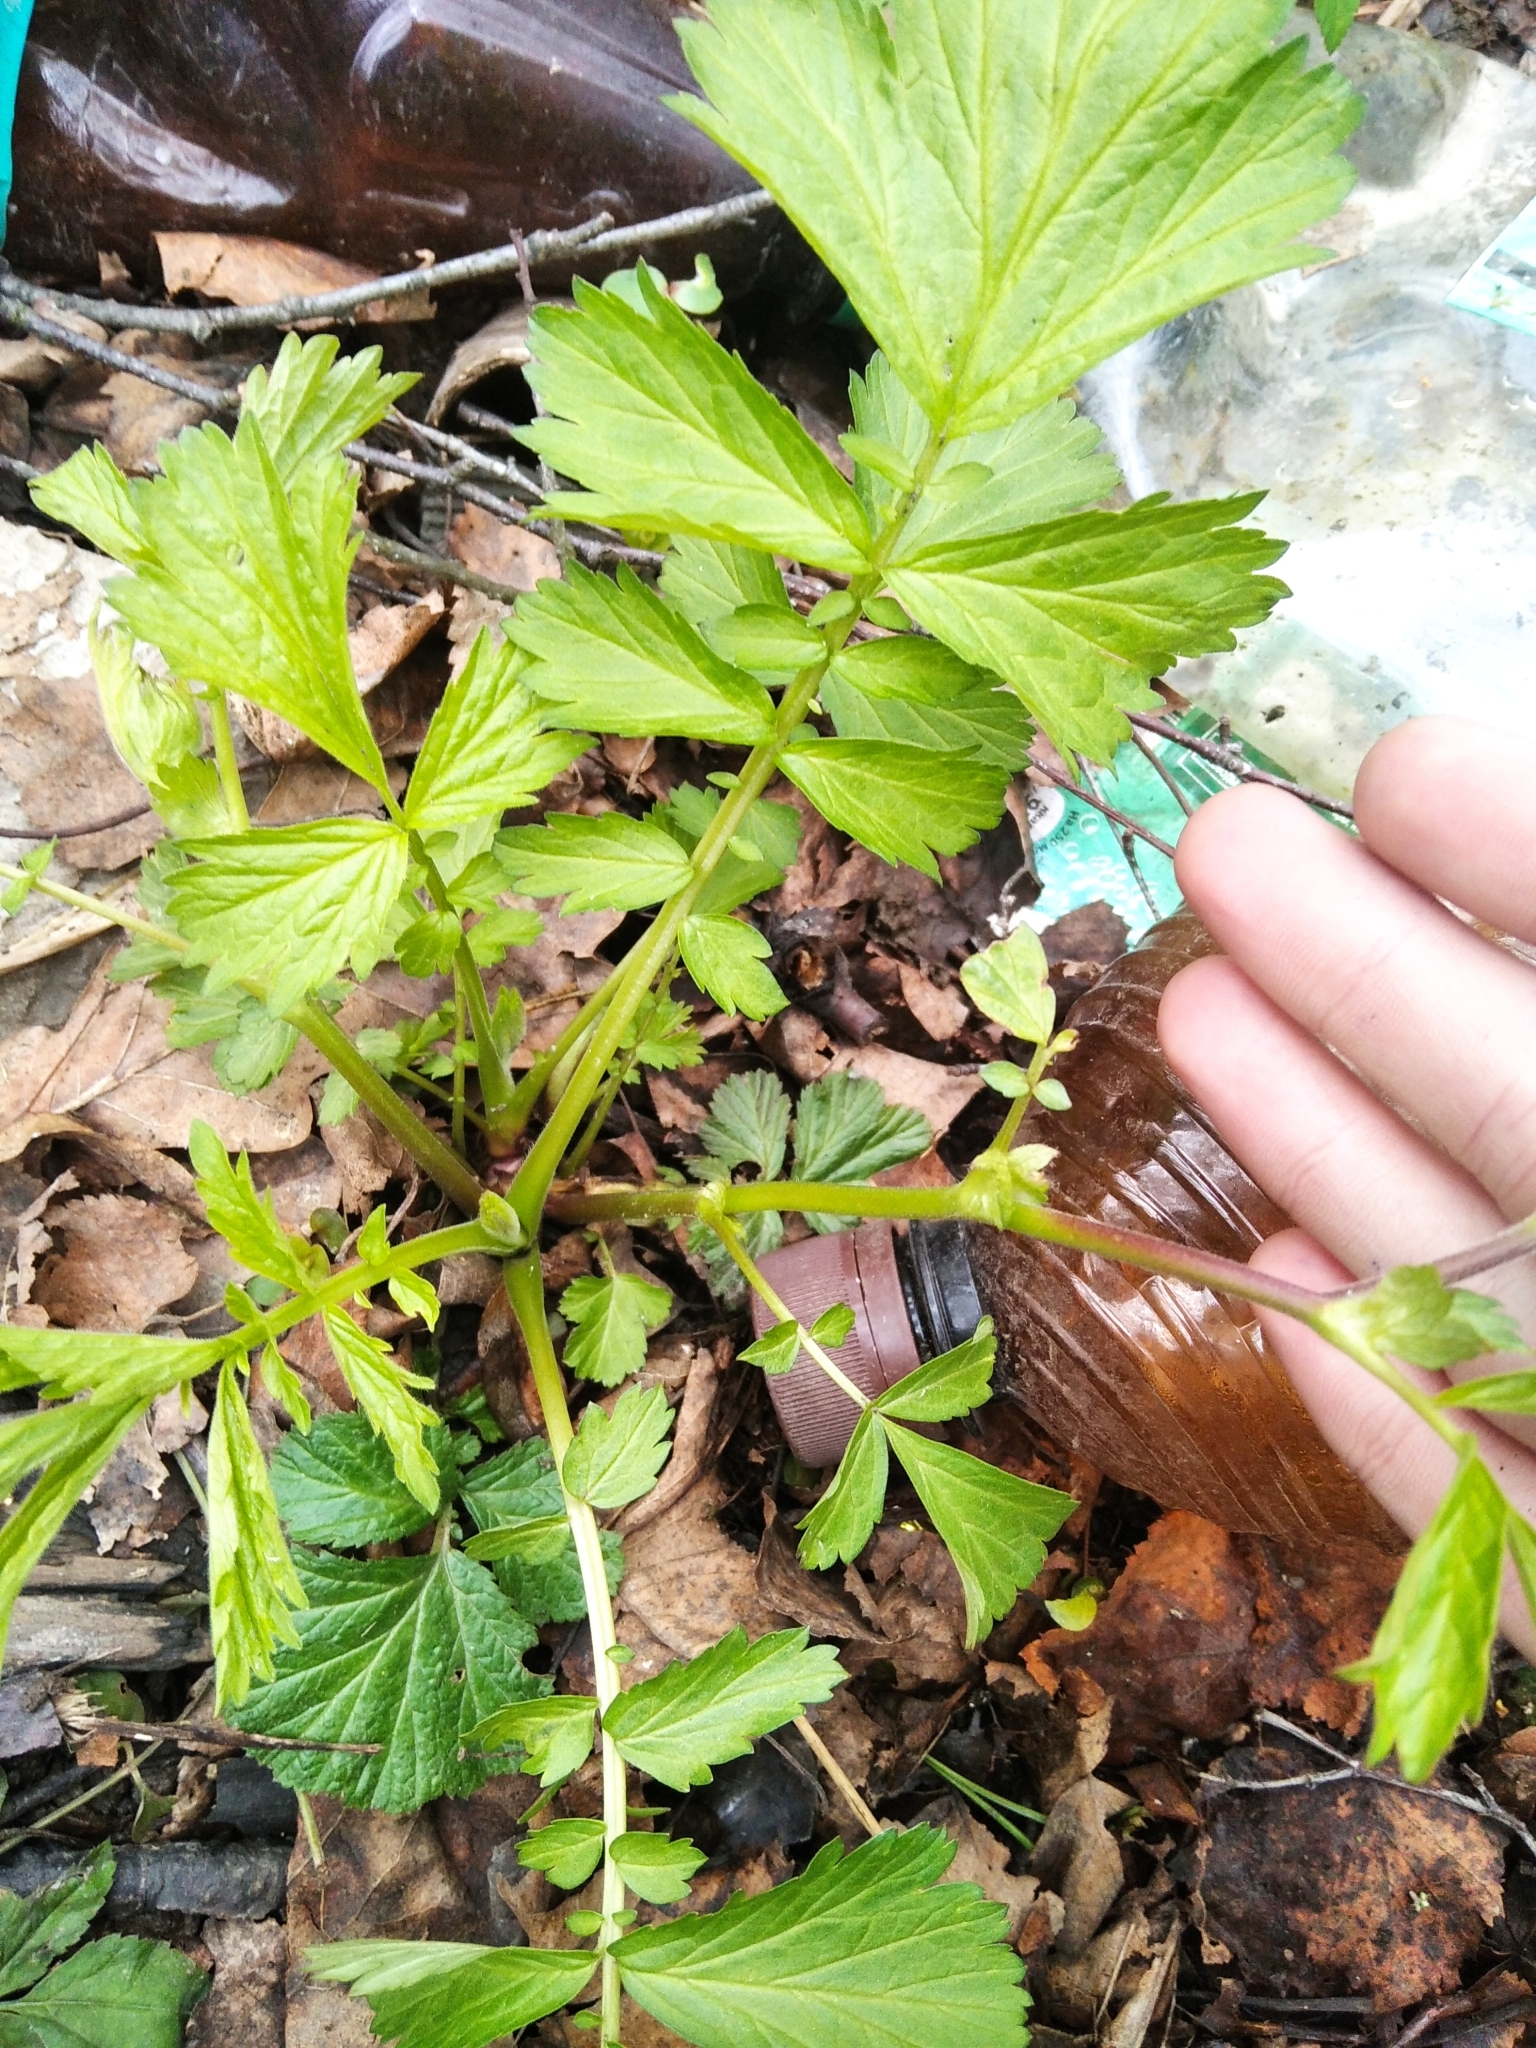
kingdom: Plantae
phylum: Tracheophyta
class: Magnoliopsida
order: Rosales
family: Rosaceae
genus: Geum
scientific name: Geum rivale
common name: Water avens
